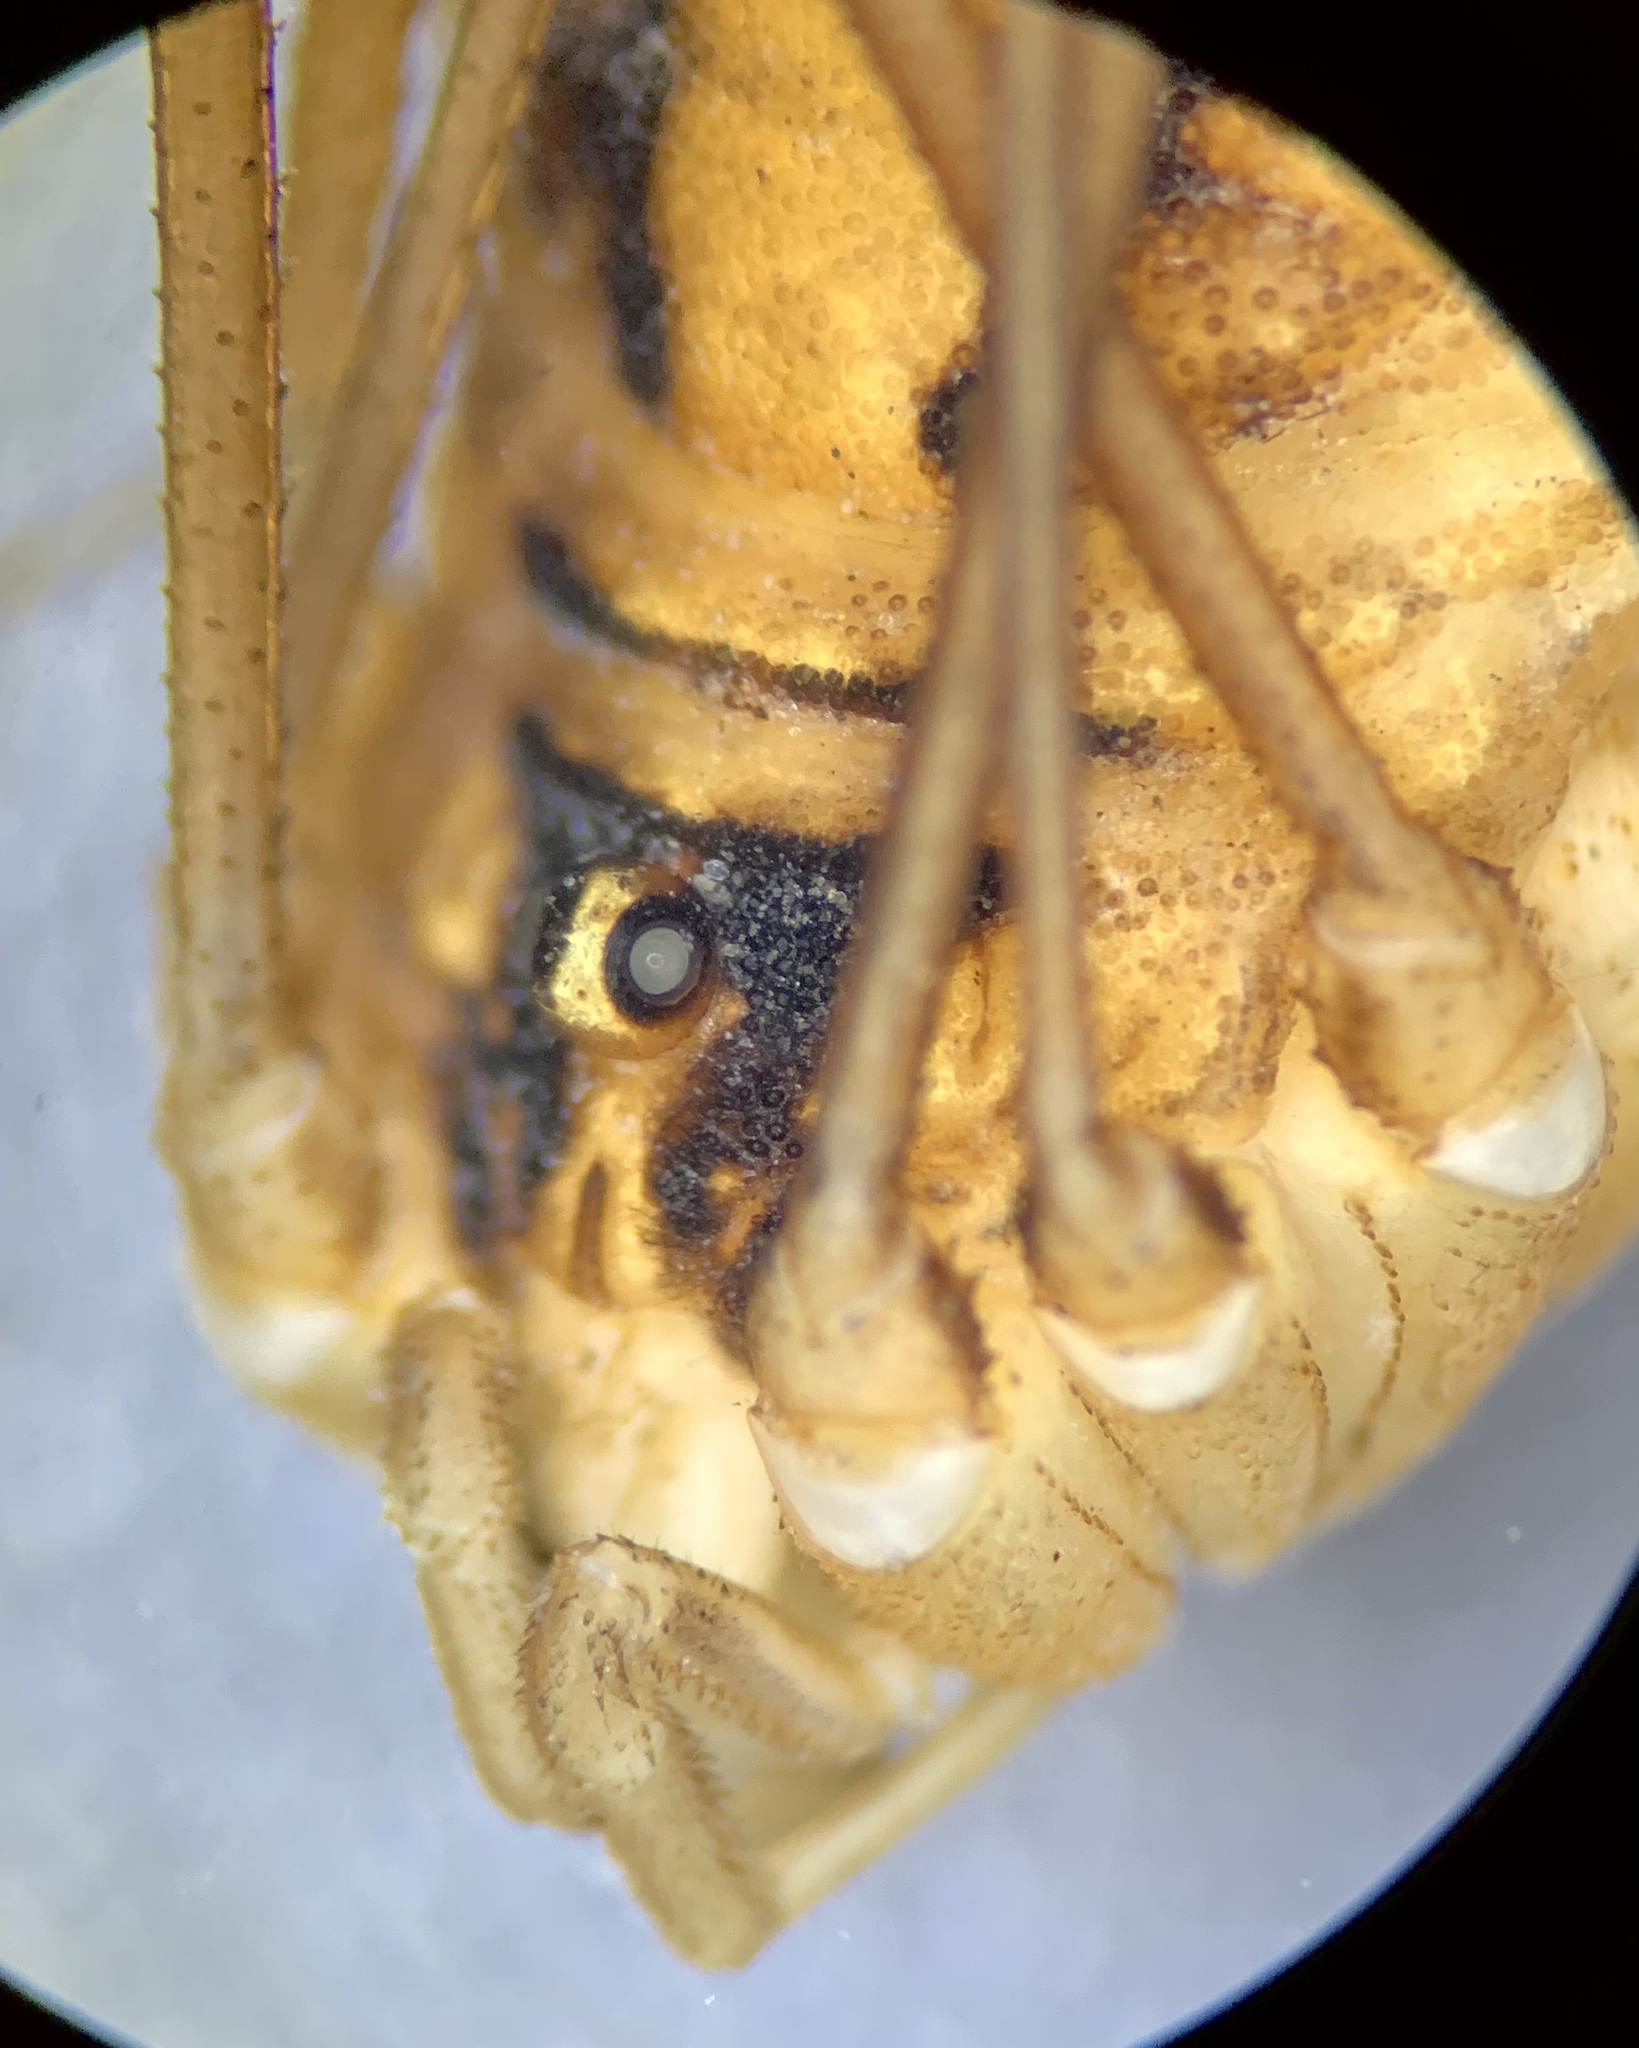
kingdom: Animalia
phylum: Arthropoda
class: Arachnida
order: Opiliones
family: Sclerosomatidae
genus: Cosmobunus
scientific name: Cosmobunus granarius
